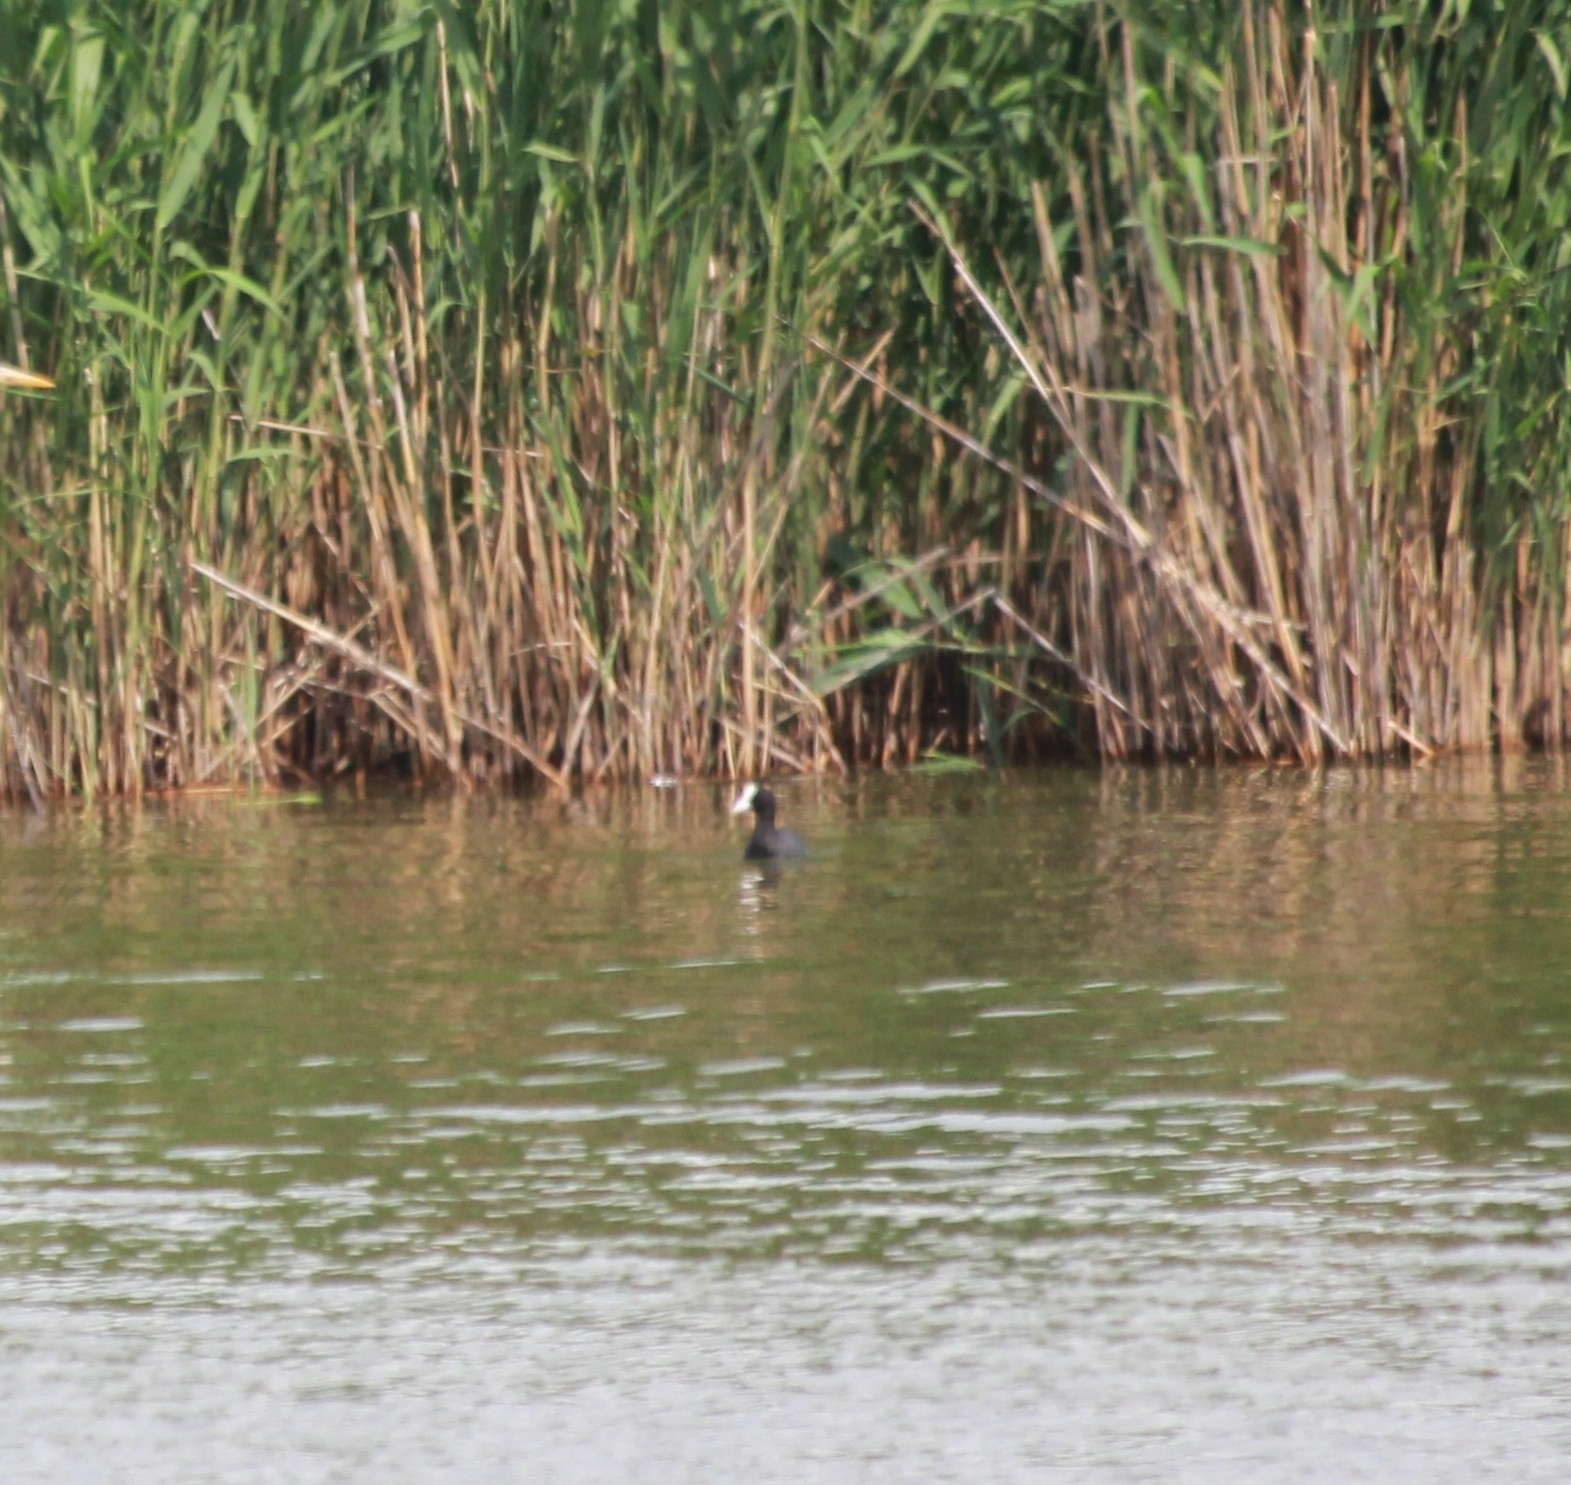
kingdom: Animalia
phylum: Chordata
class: Aves
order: Gruiformes
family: Rallidae
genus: Fulica
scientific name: Fulica atra
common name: Eurasian coot
